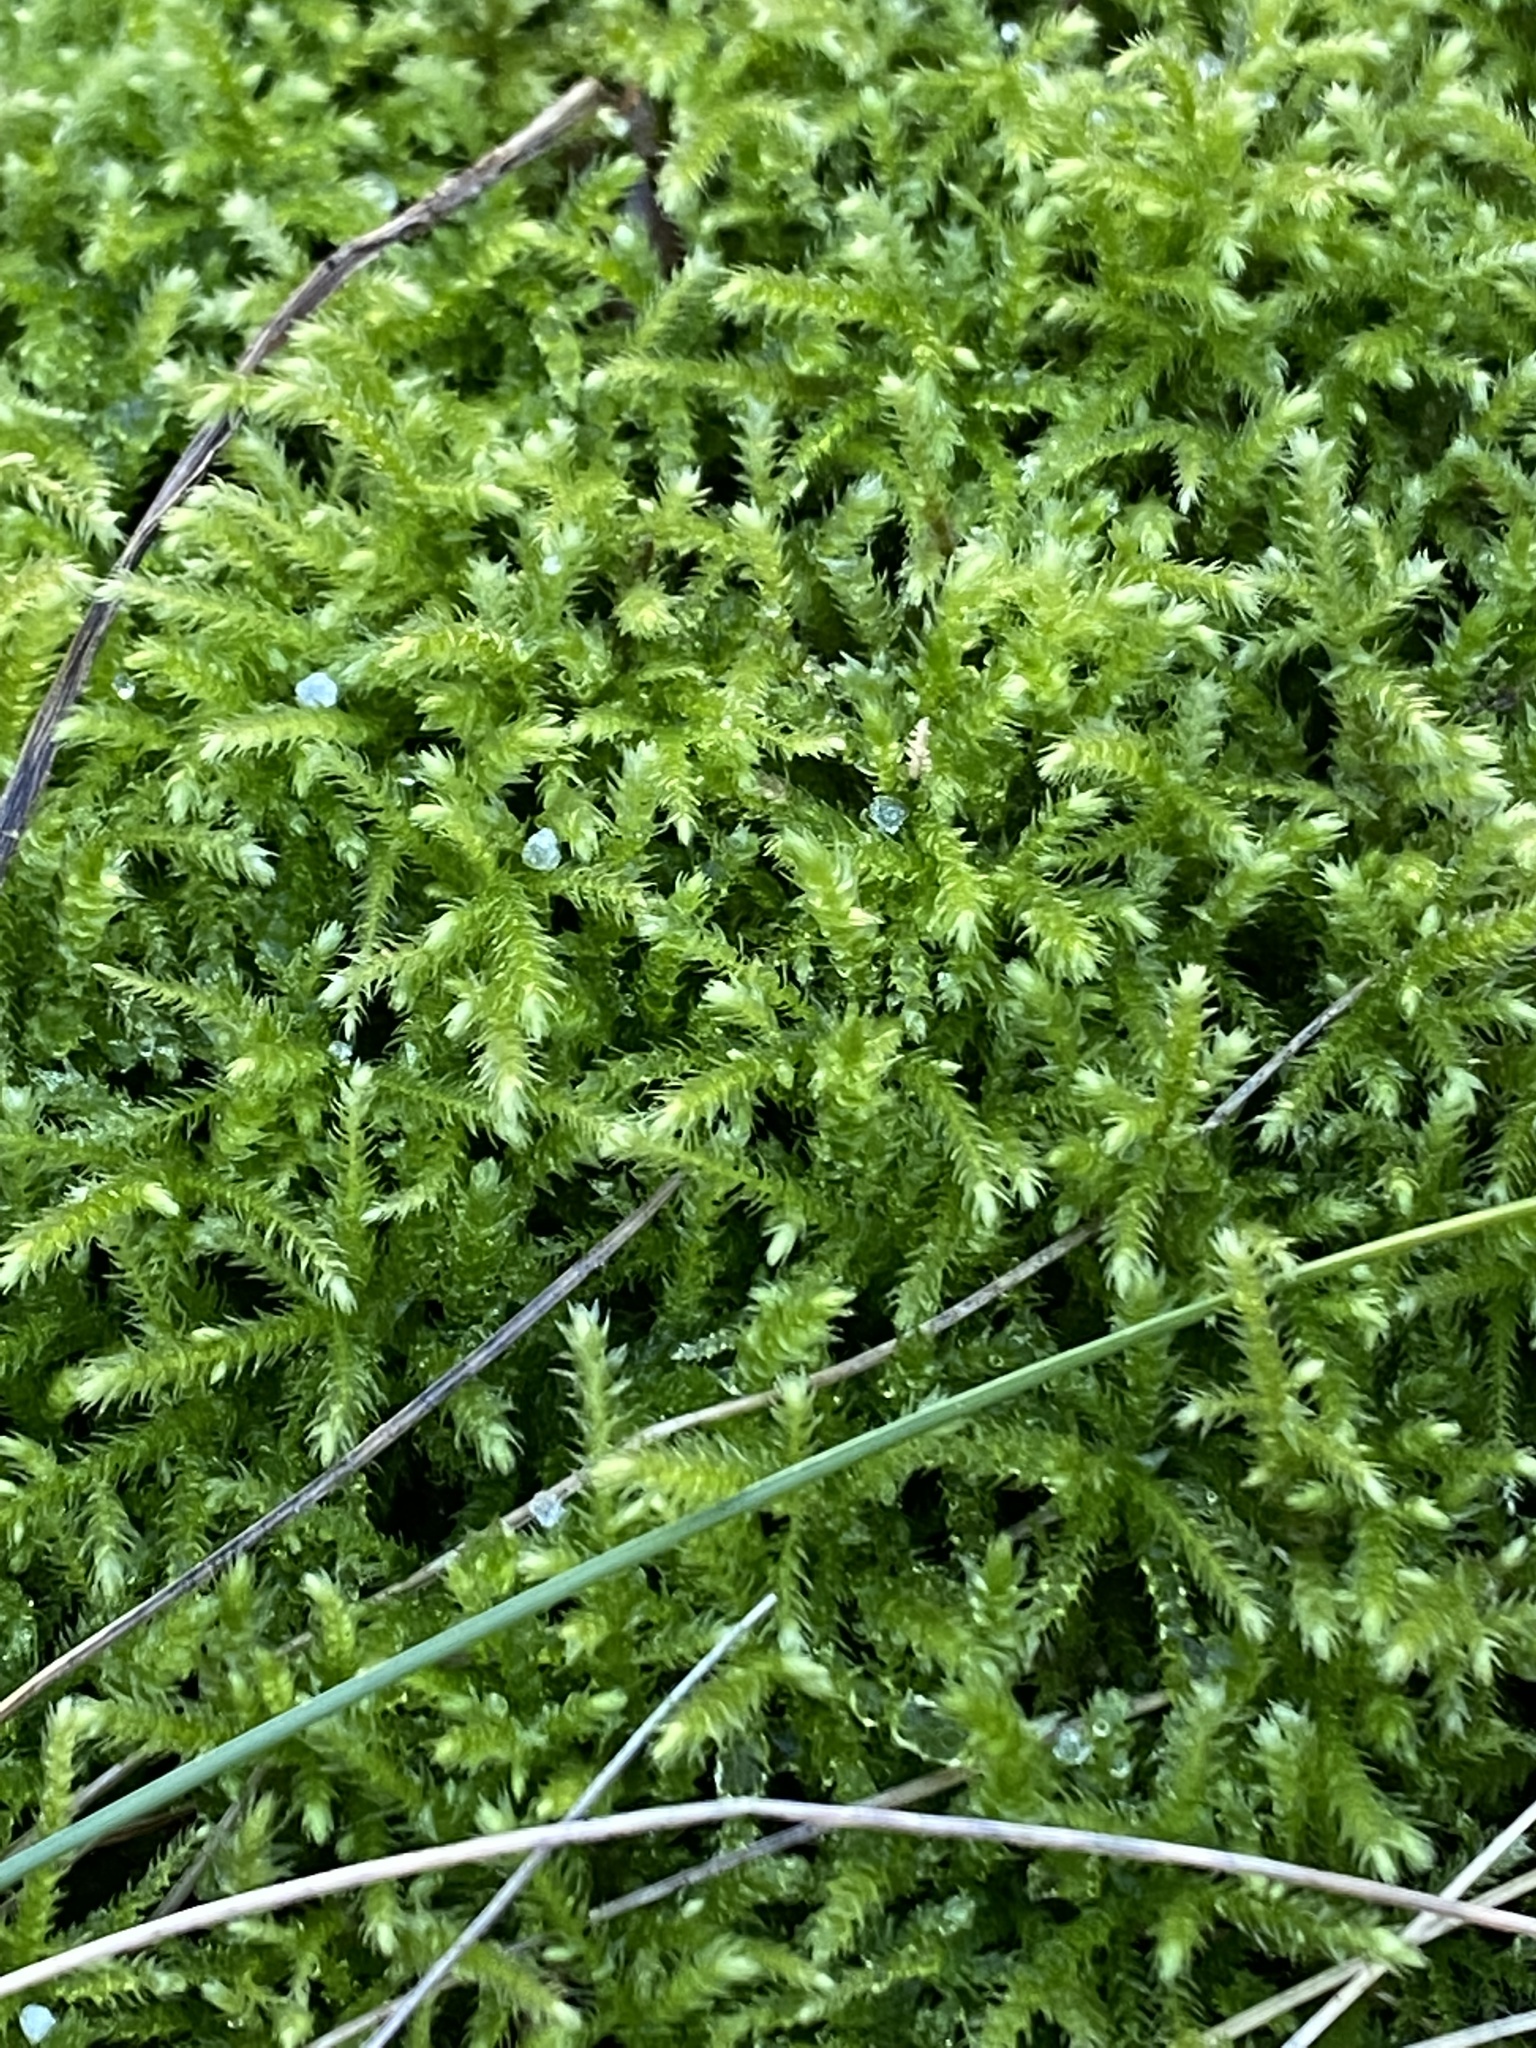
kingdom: Plantae
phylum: Bryophyta
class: Bryopsida
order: Hypnales
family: Brachytheciaceae
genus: Eurhynchium
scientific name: Eurhynchium striatum
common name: Common striated feather-moss
